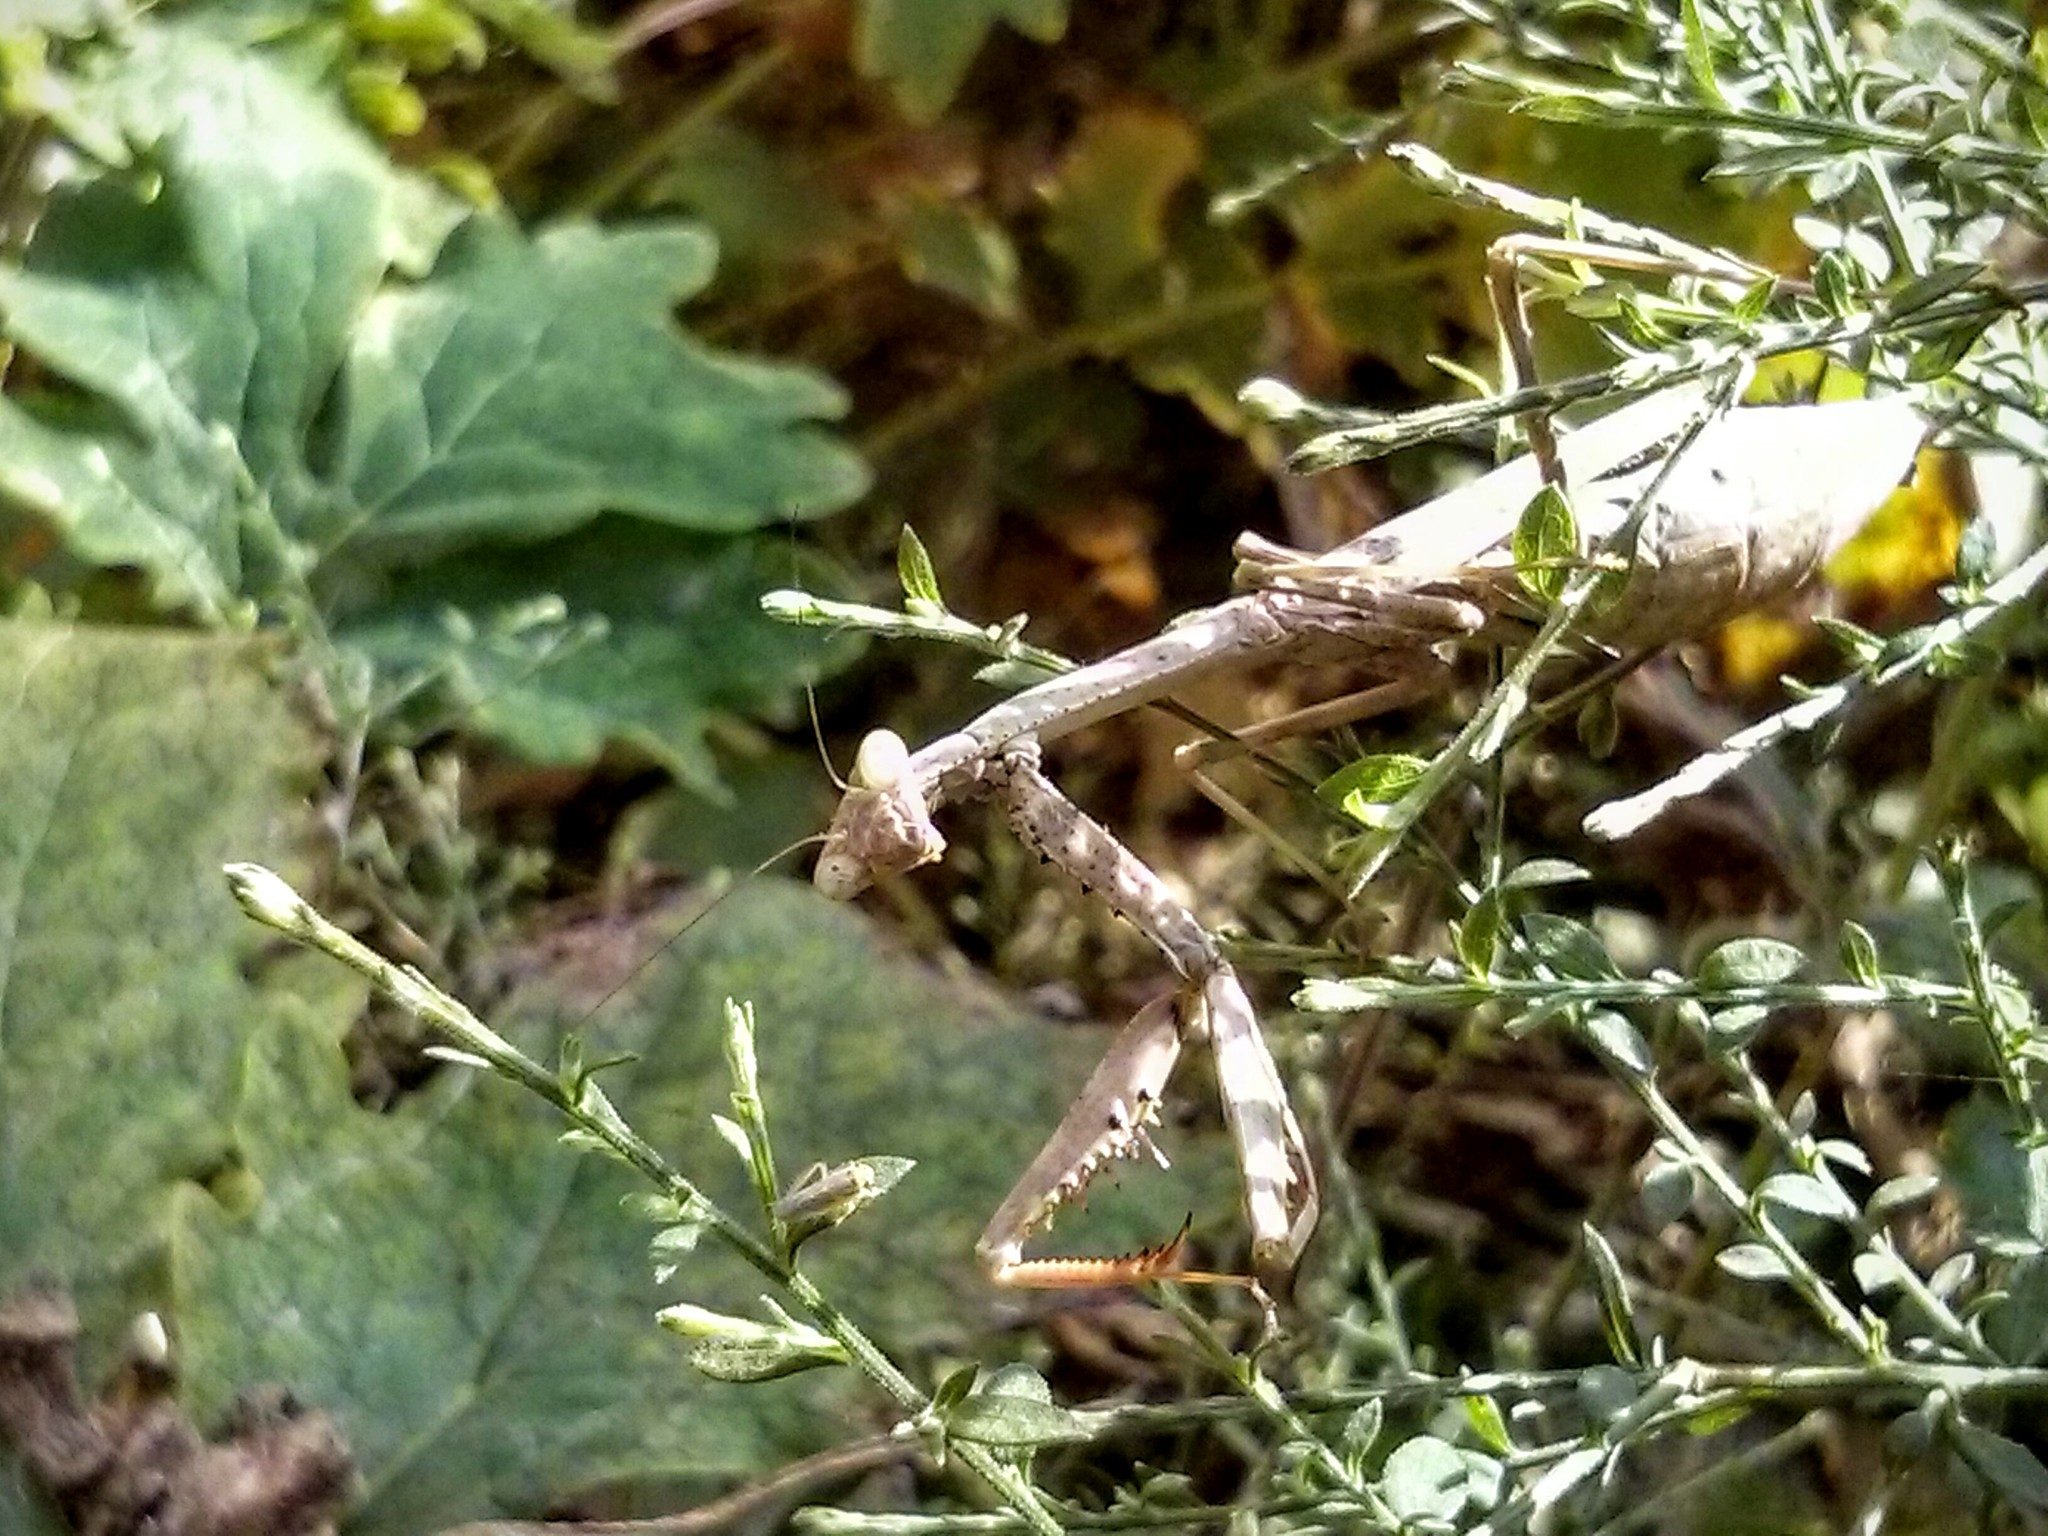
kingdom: Animalia
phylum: Arthropoda
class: Insecta
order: Mantodea
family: Mantidae
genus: Stagmomantis
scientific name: Stagmomantis carolina
